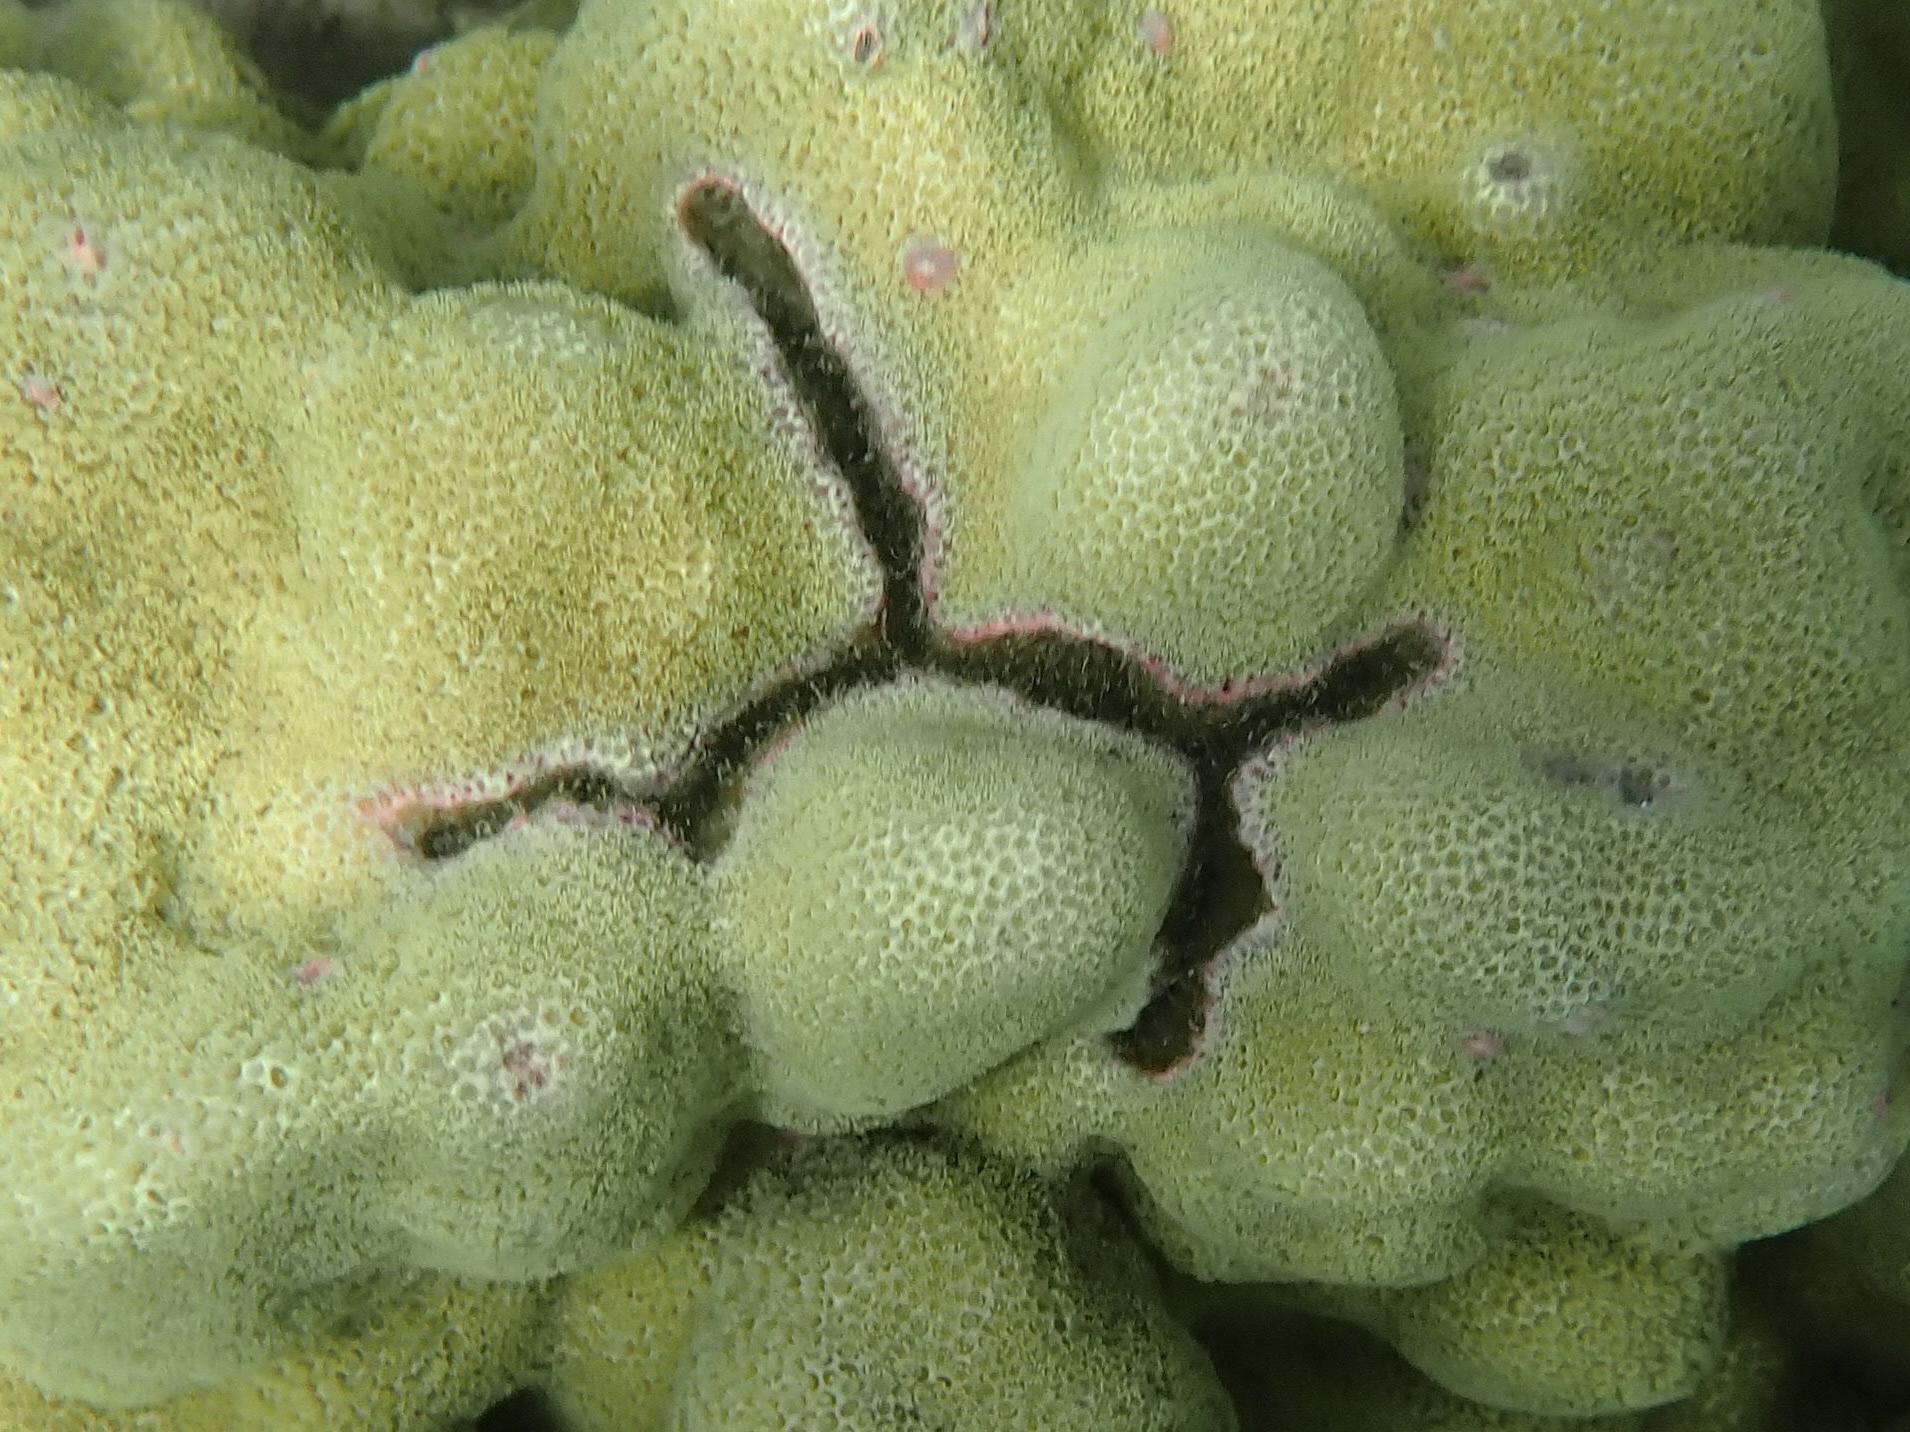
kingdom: Animalia
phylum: Arthropoda
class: Malacostraca
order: Decapoda
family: Alpheidae
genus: Alpheus
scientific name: Alpheus deuteropus
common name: Petroglyph shrimp
